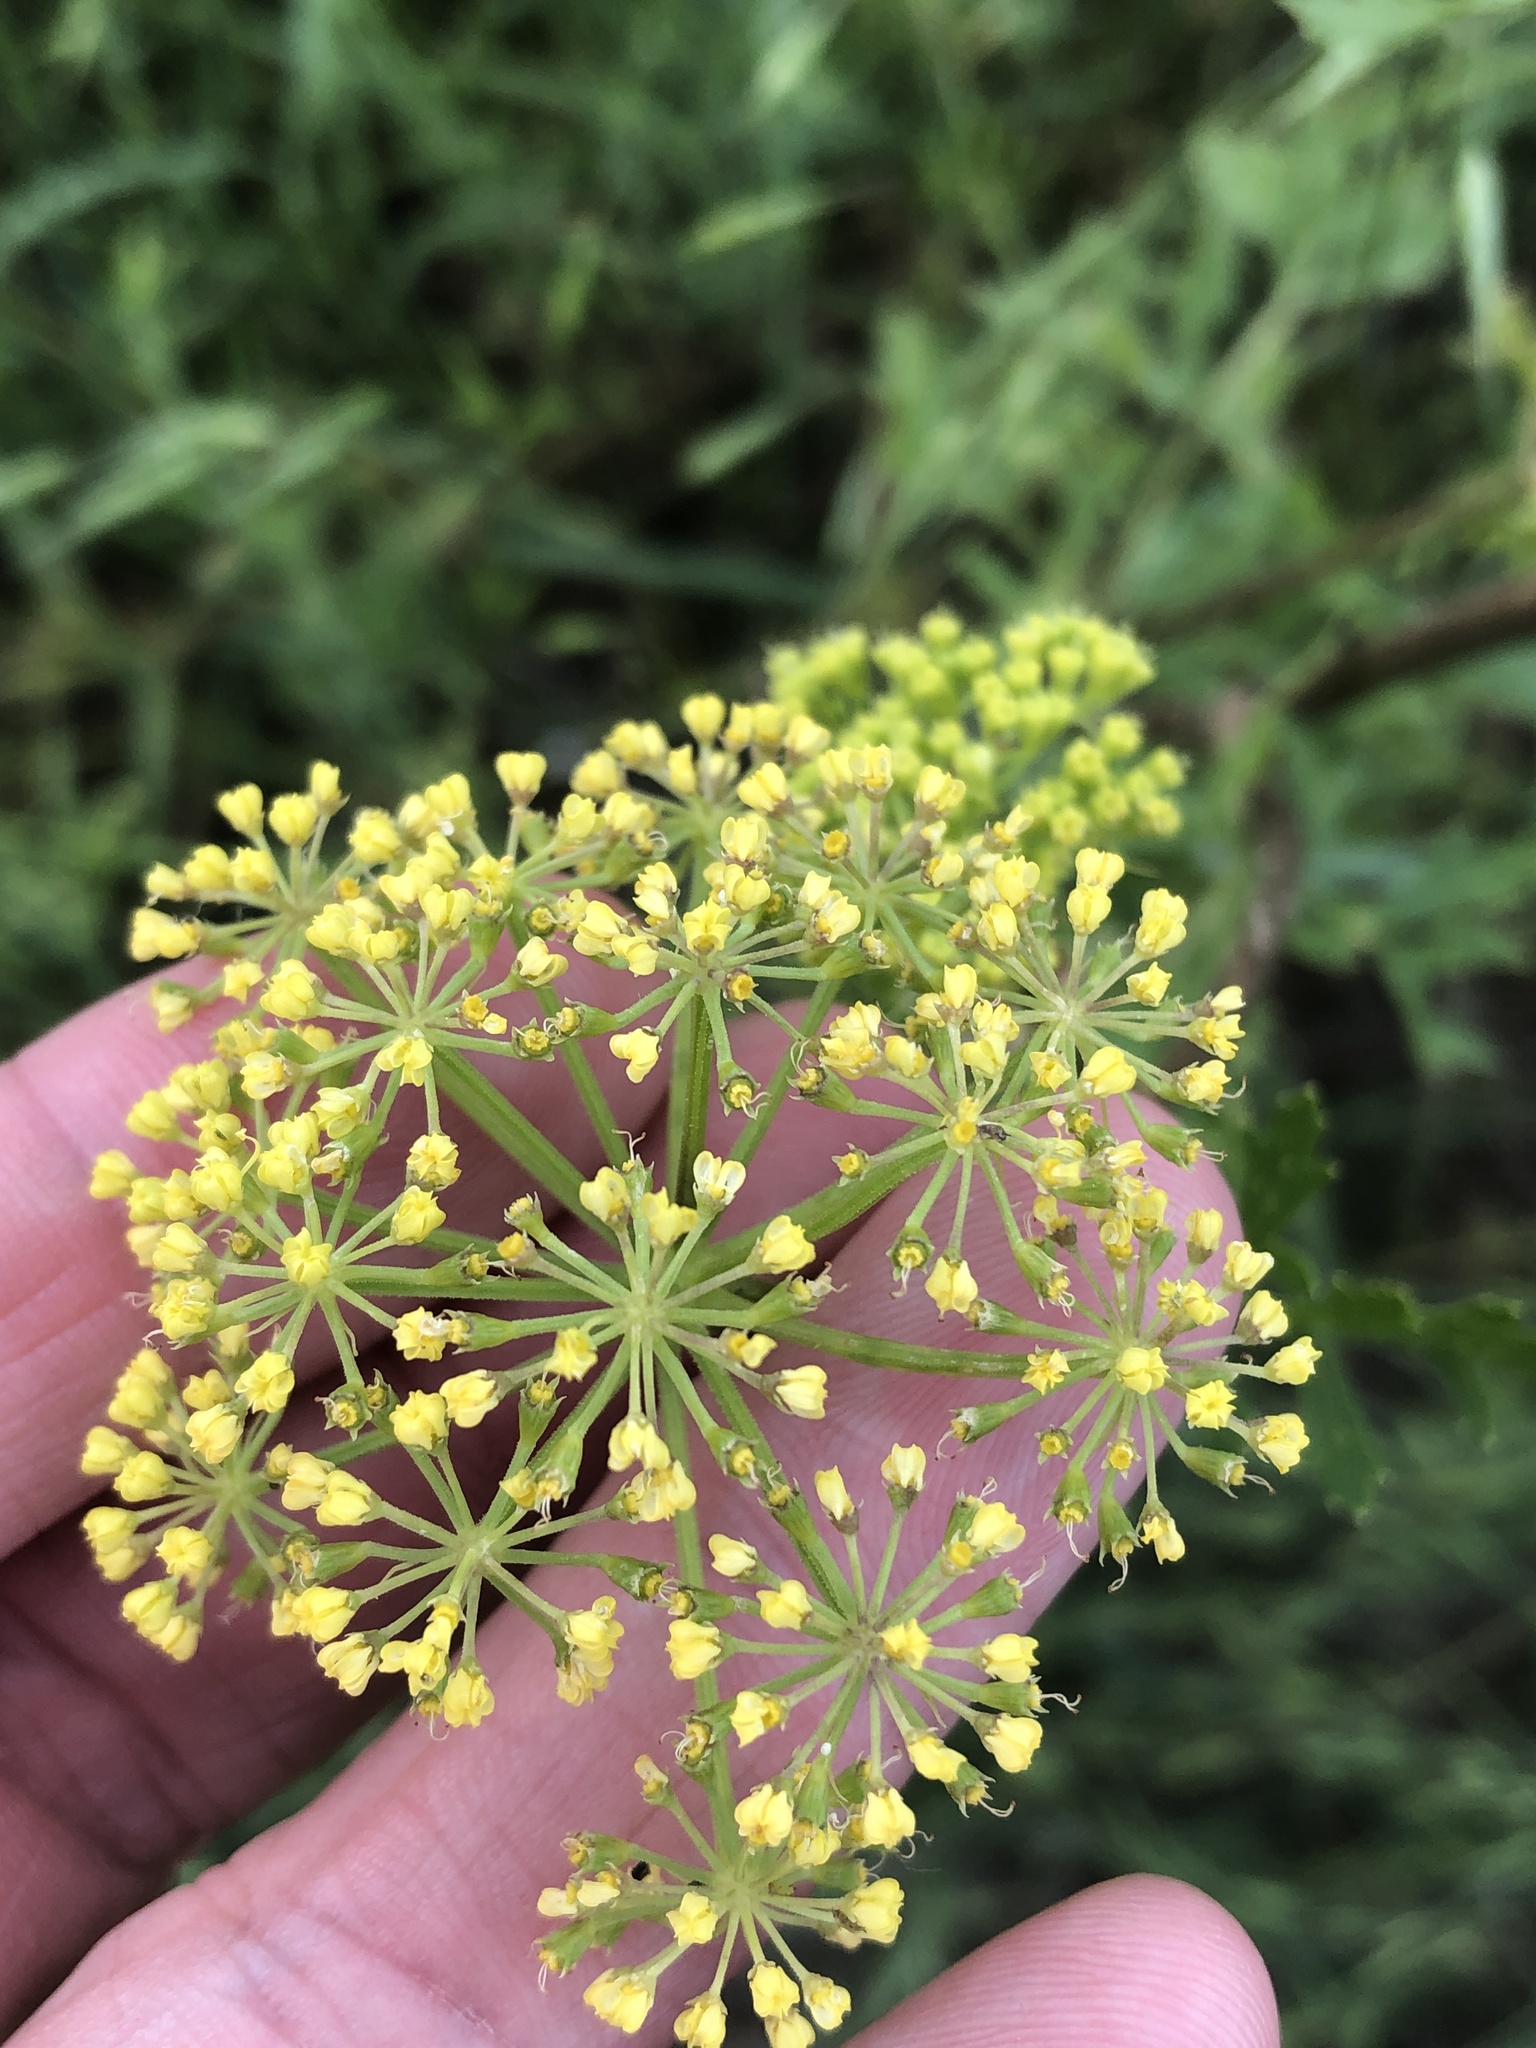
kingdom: Plantae
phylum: Tracheophyta
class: Magnoliopsida
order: Apiales
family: Apiaceae
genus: Polytaenia
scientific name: Polytaenia texana
